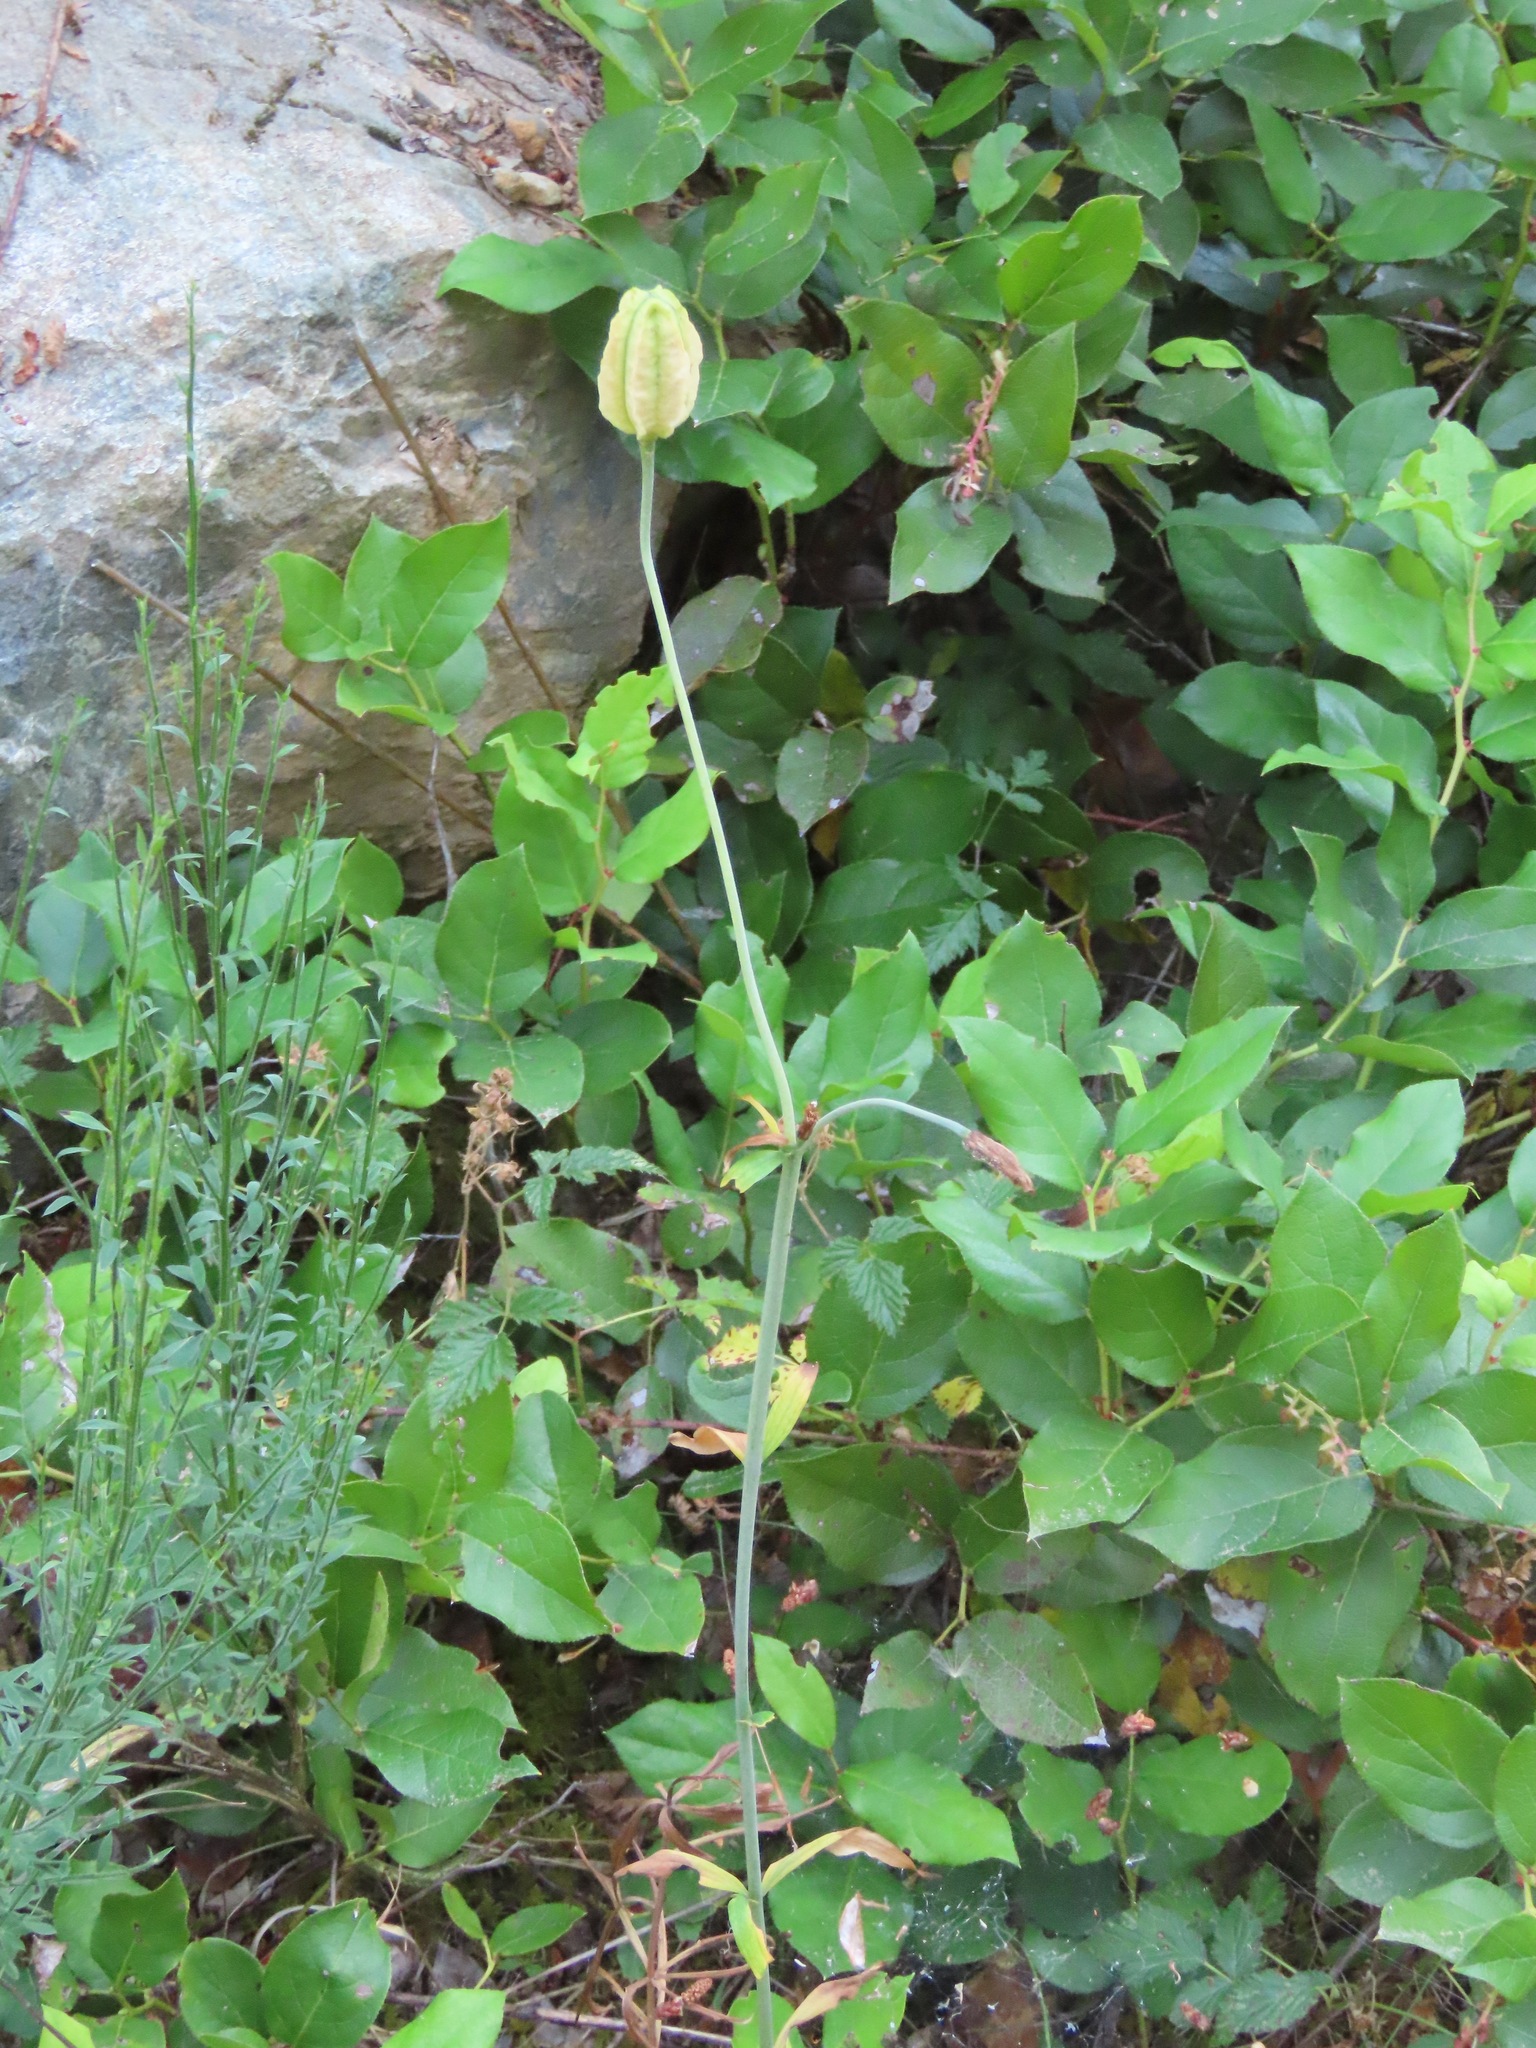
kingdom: Plantae
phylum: Tracheophyta
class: Liliopsida
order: Liliales
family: Liliaceae
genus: Lilium
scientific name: Lilium columbianum
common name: Columbia lily
